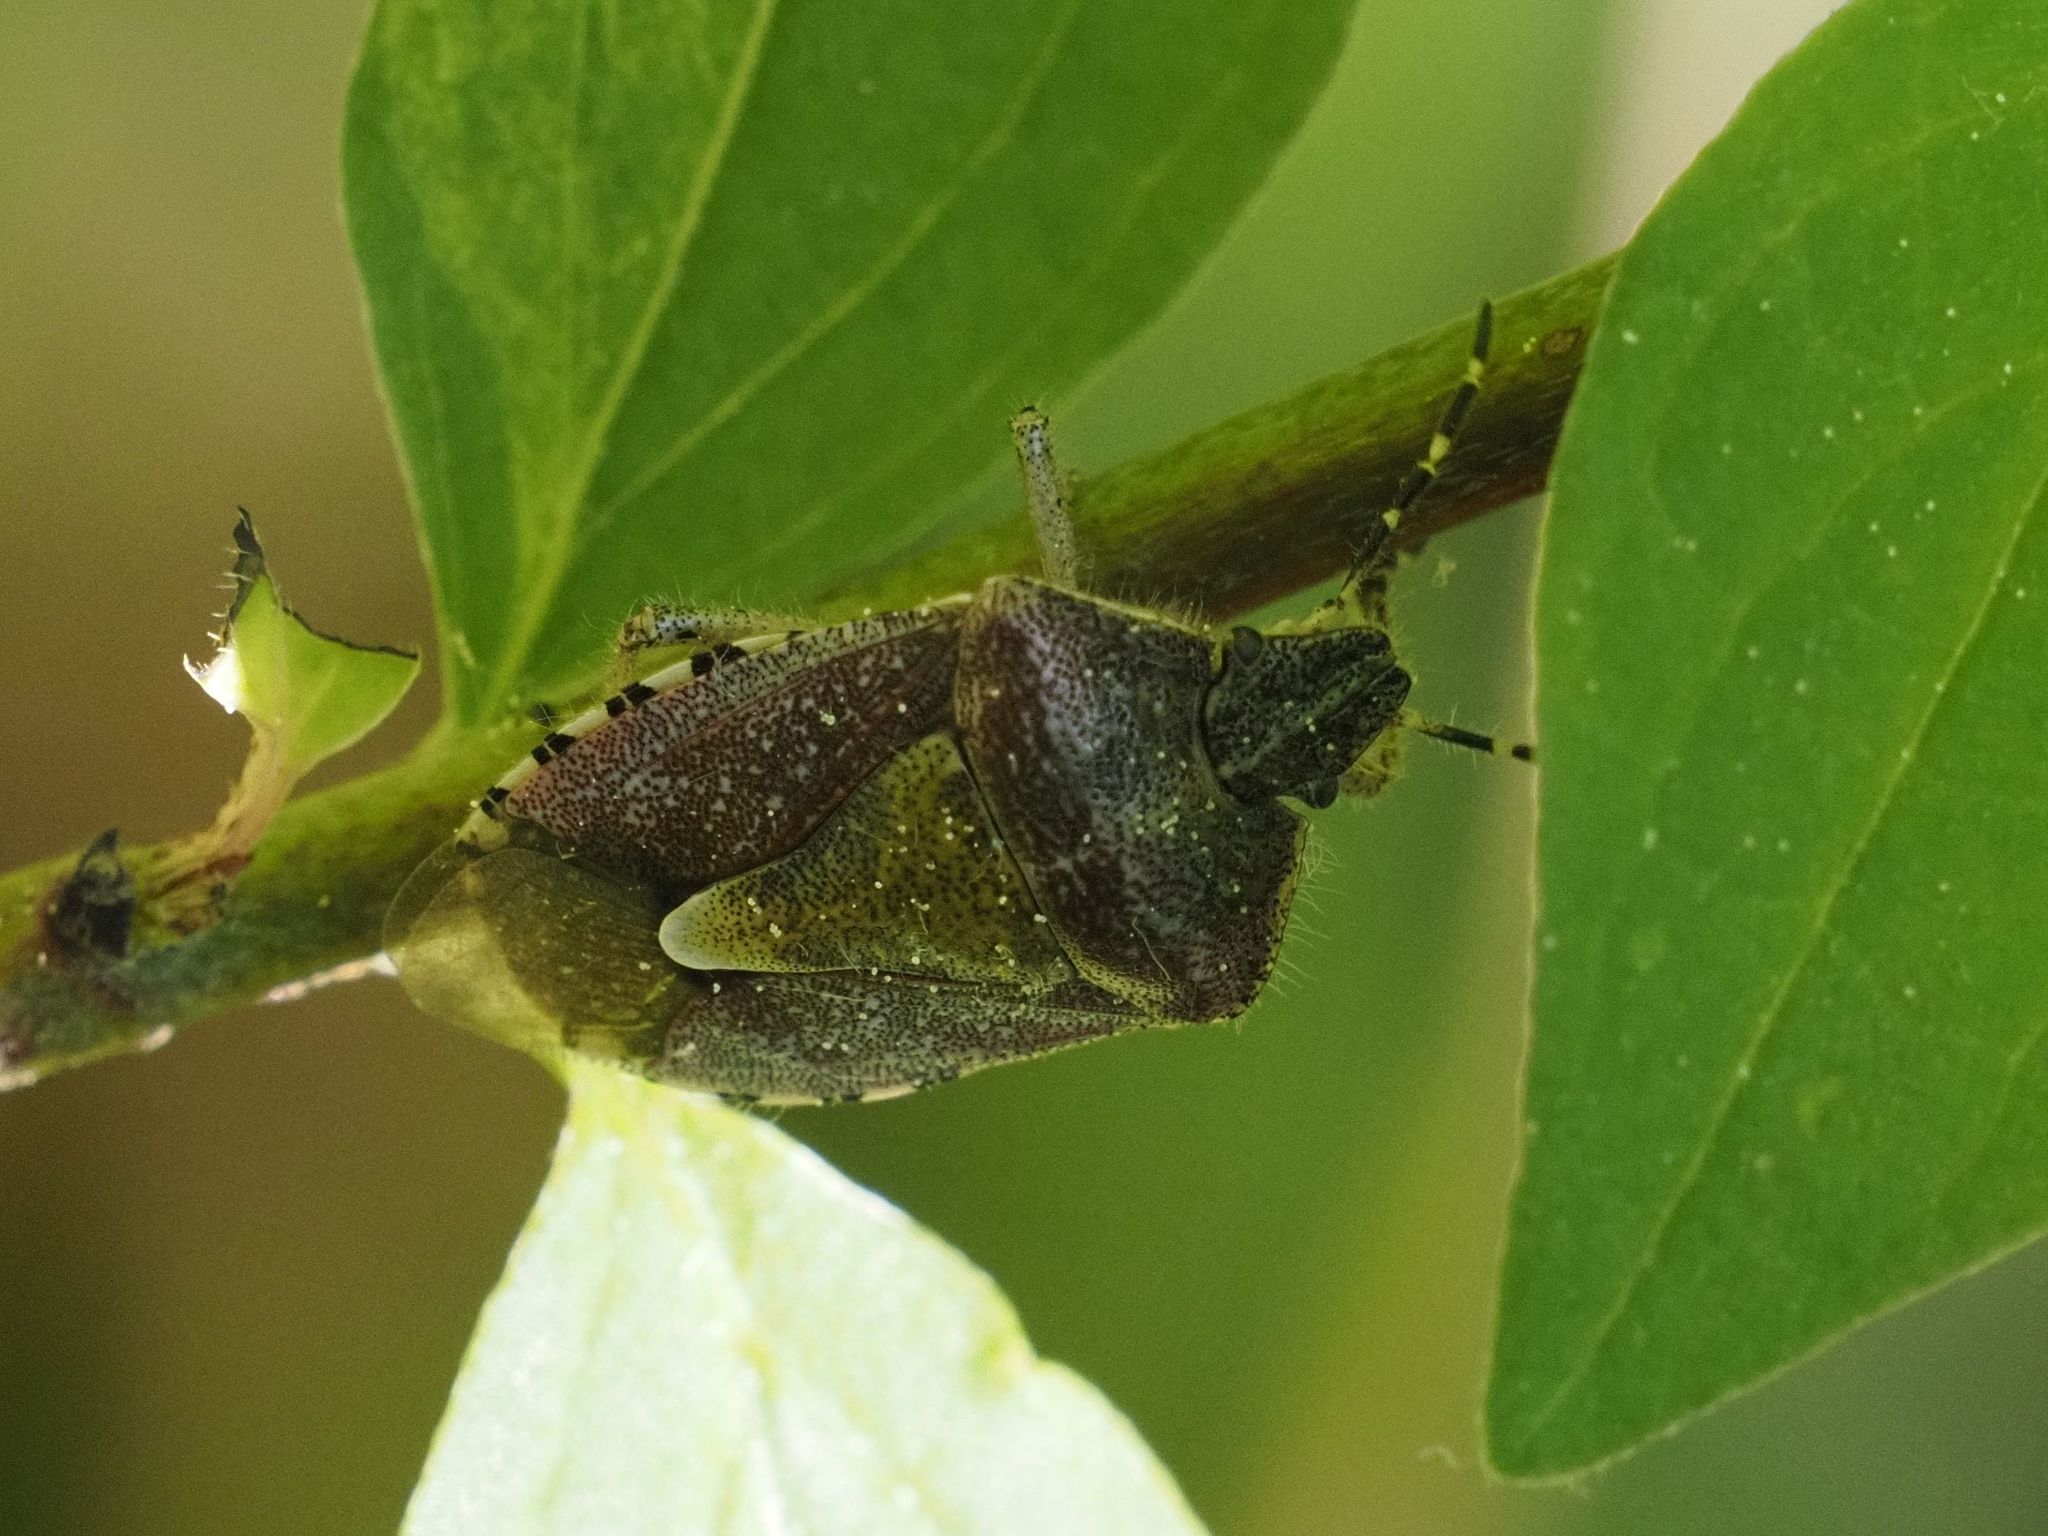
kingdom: Animalia
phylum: Arthropoda
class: Insecta
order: Hemiptera
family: Pentatomidae
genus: Dolycoris
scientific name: Dolycoris baccarum
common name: Sloe bug
